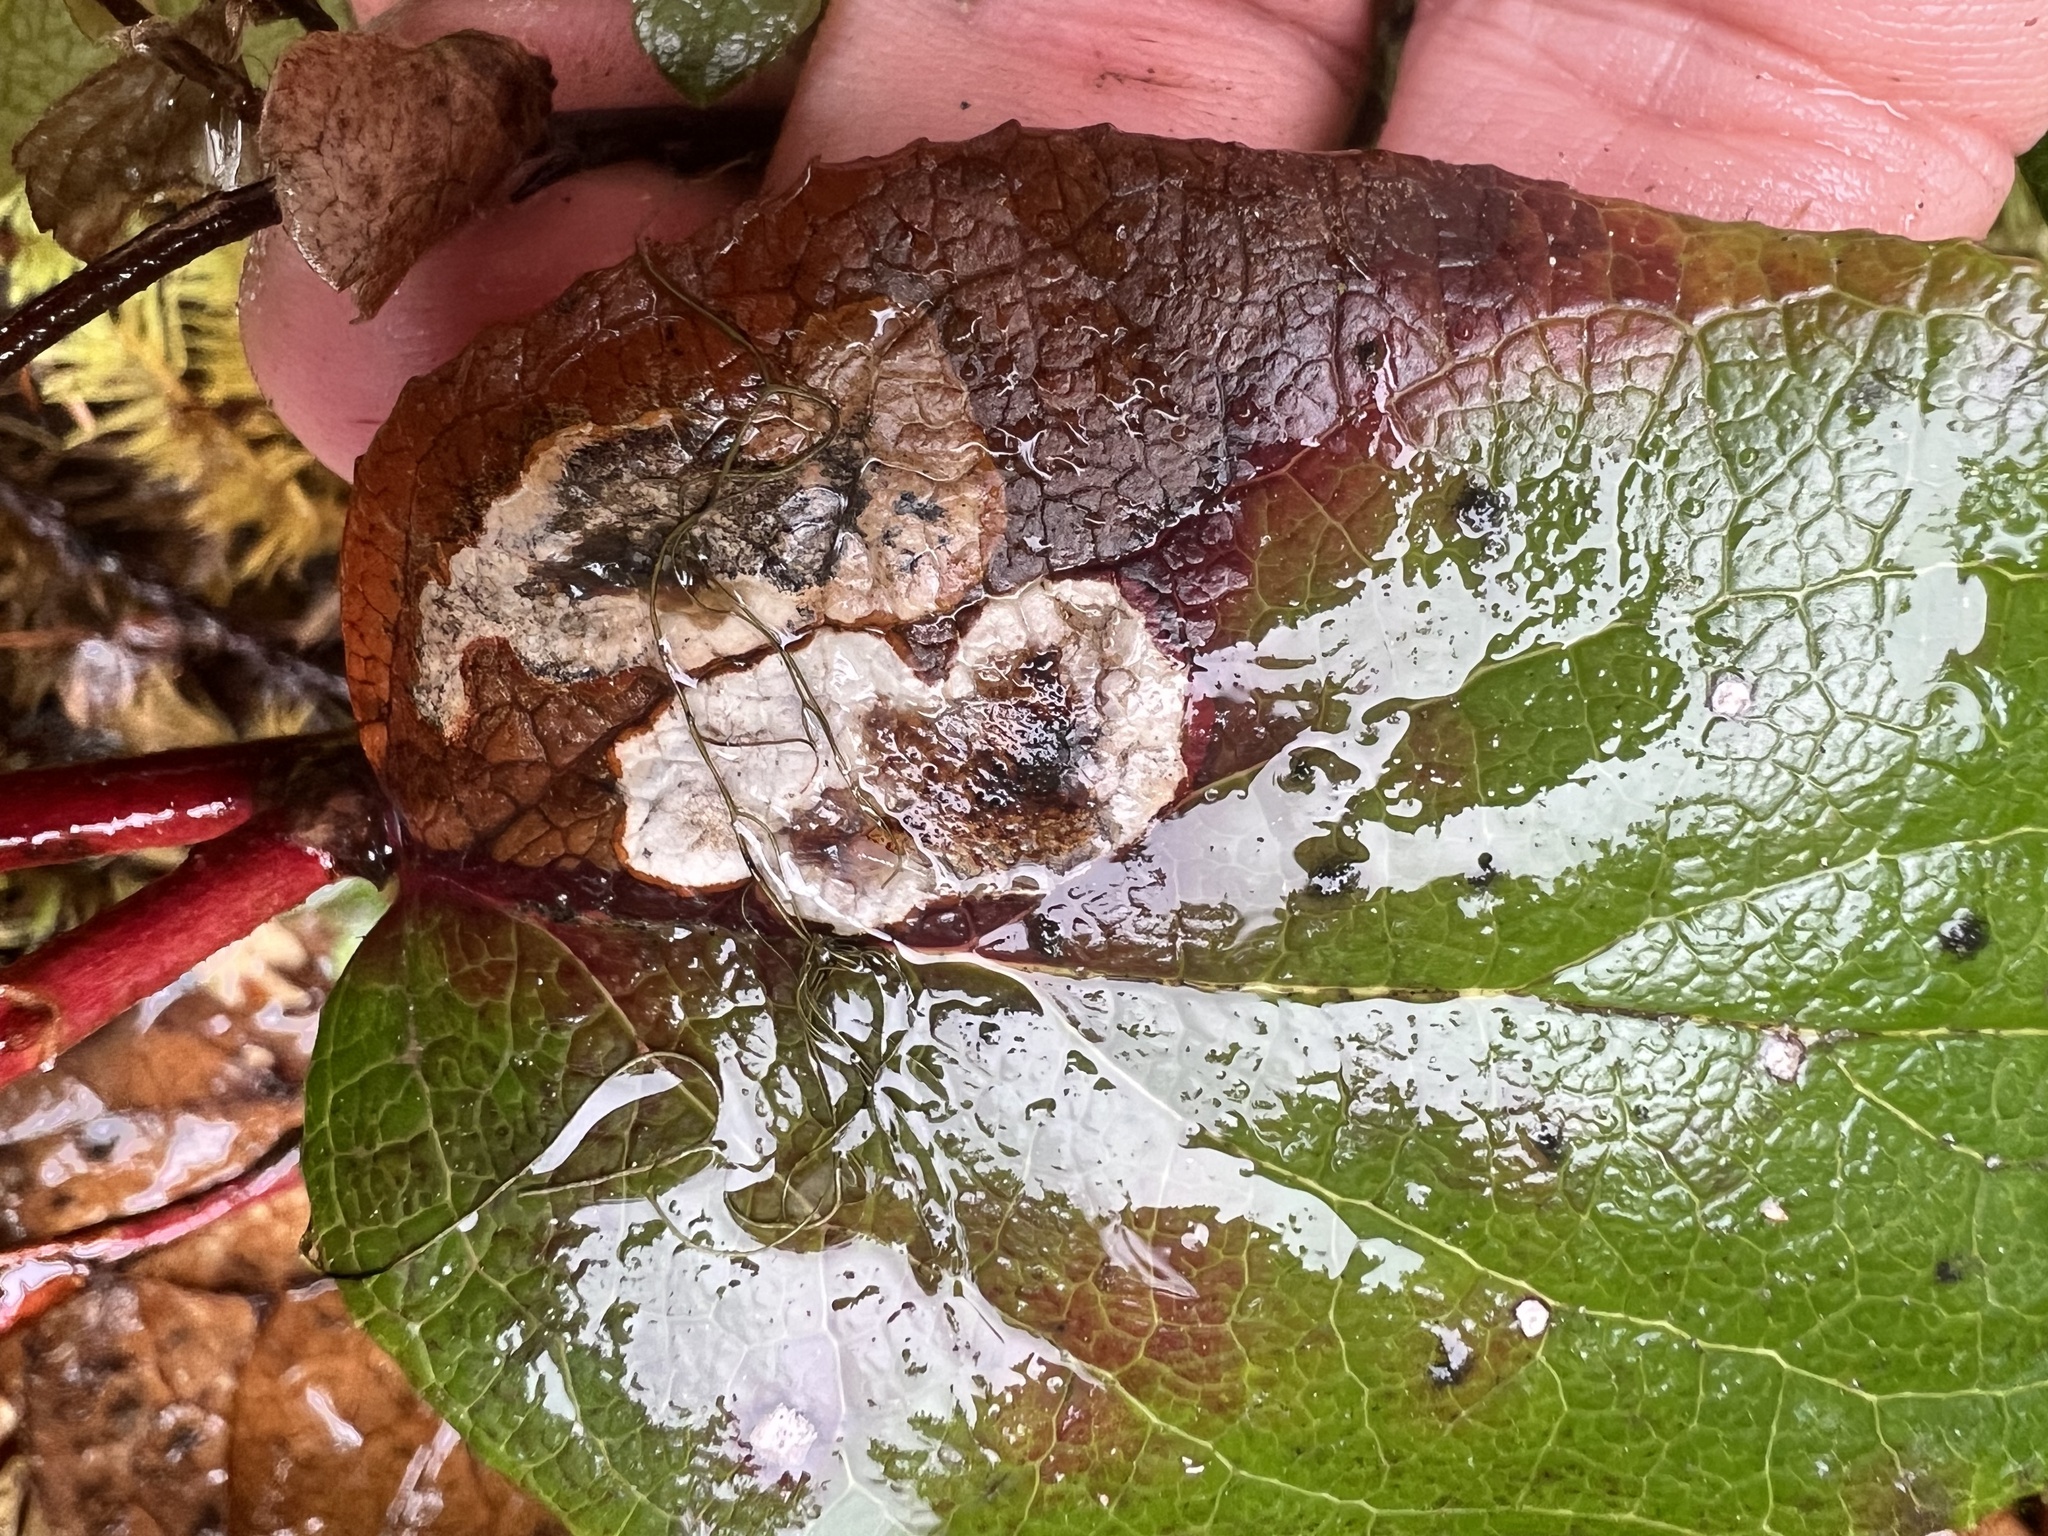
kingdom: Animalia
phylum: Arthropoda
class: Insecta
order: Lepidoptera
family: Gracillariidae
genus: Cameraria
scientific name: Cameraria gaultheriella
